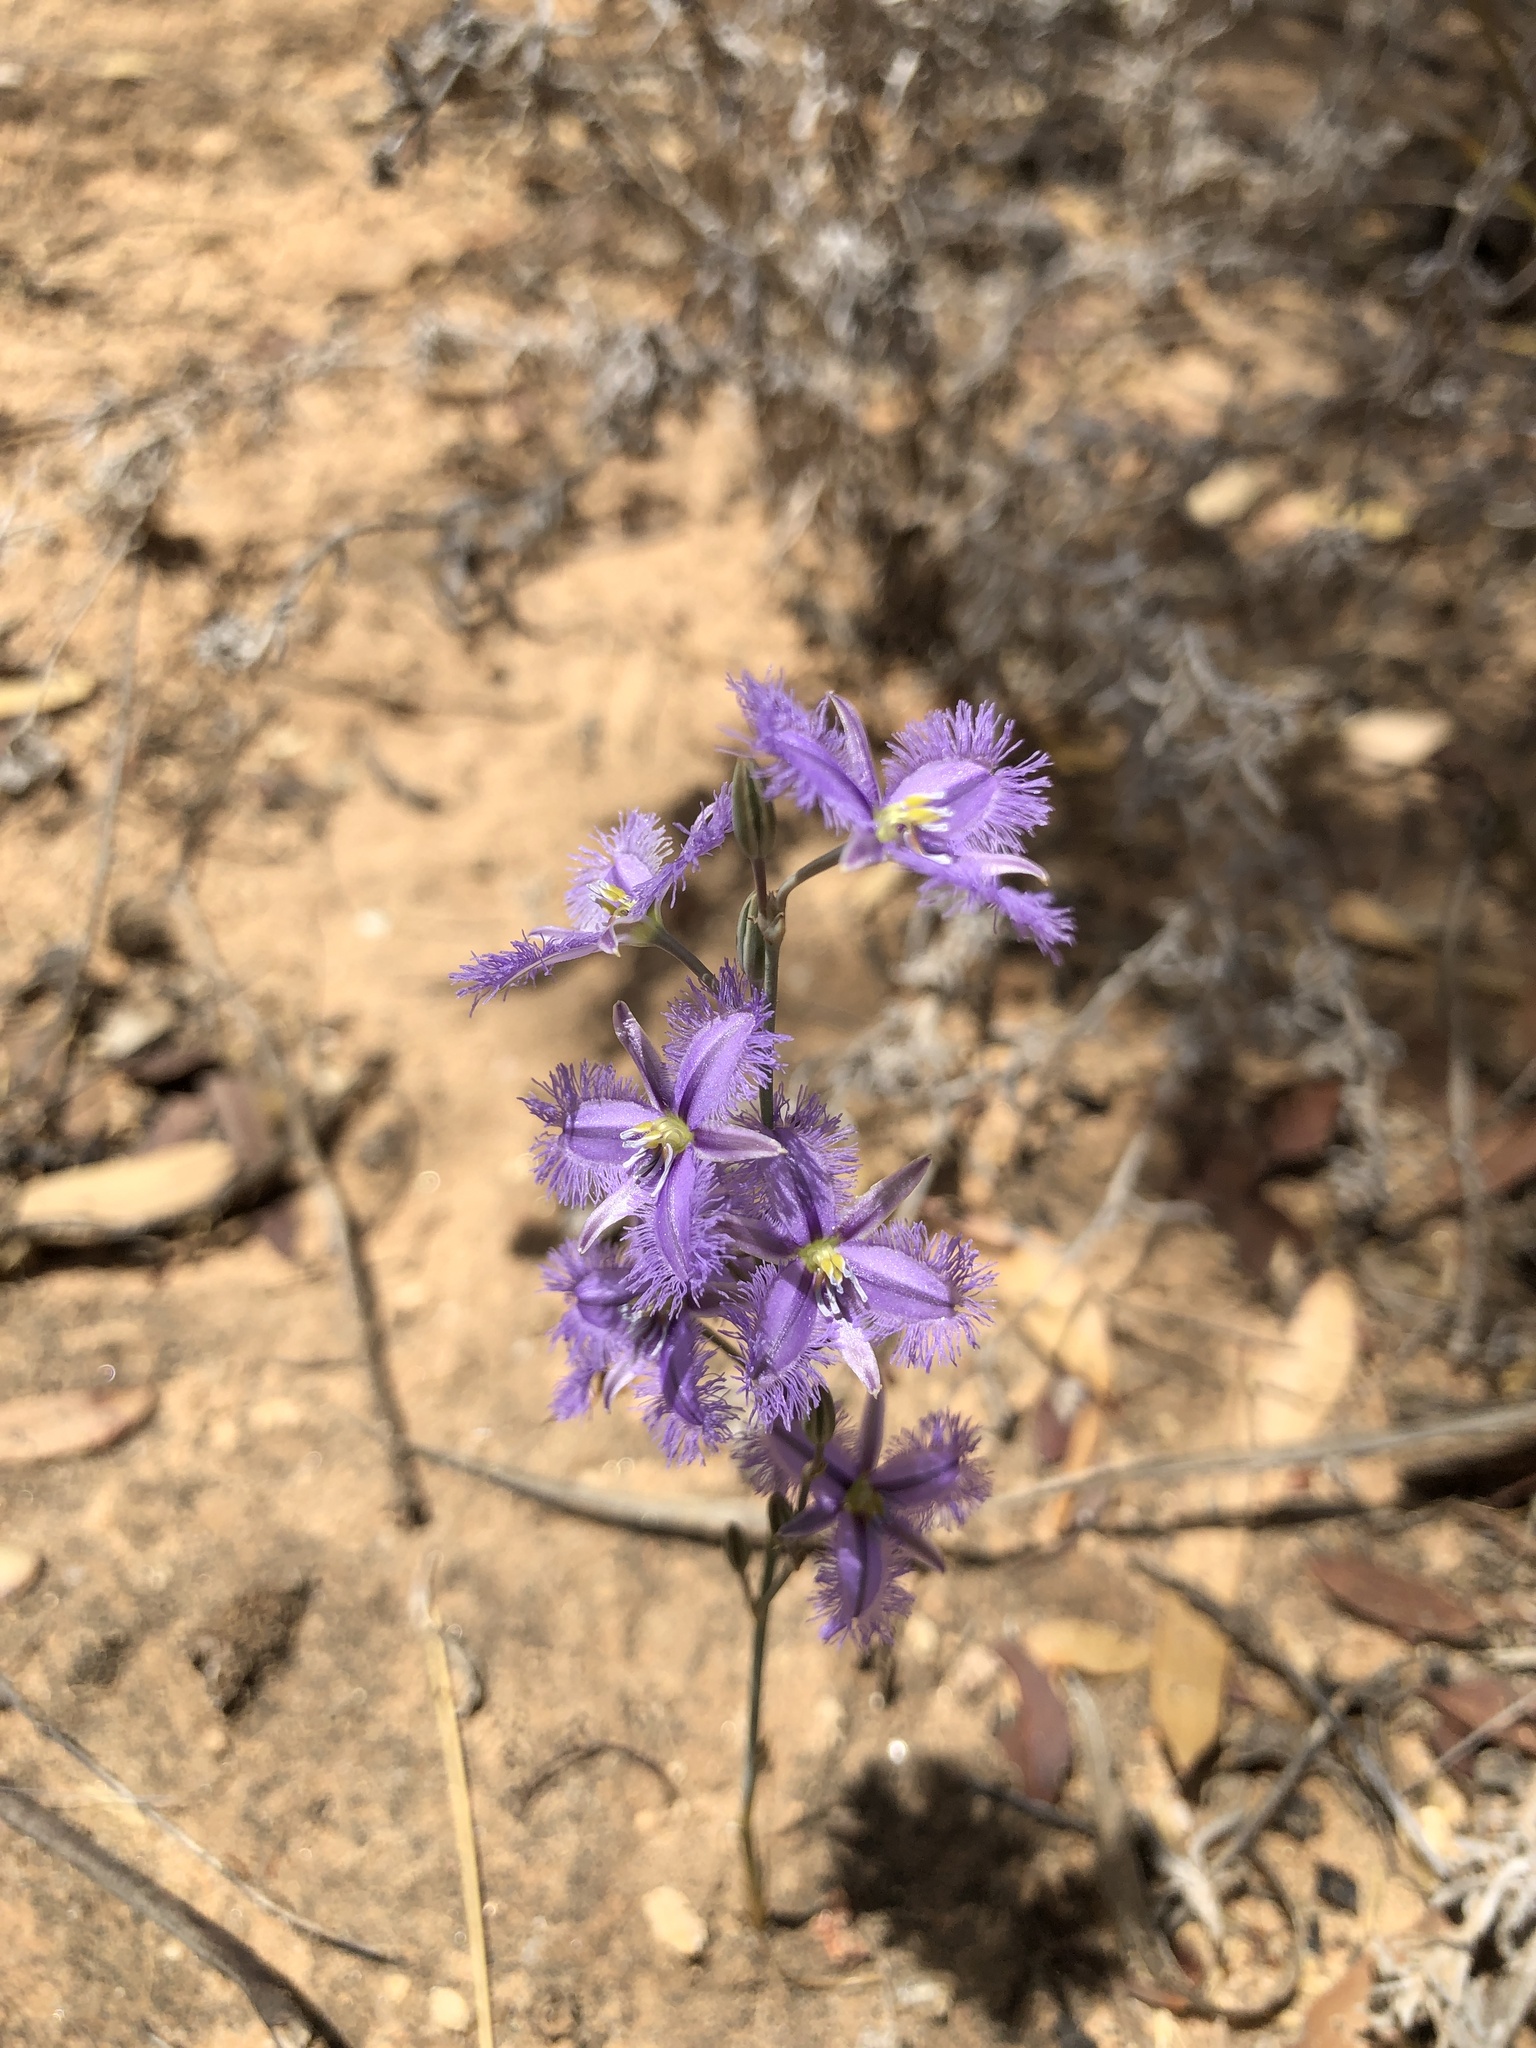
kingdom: Plantae
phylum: Tracheophyta
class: Liliopsida
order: Asparagales
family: Asparagaceae
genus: Thysanotus
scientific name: Thysanotus baueri
